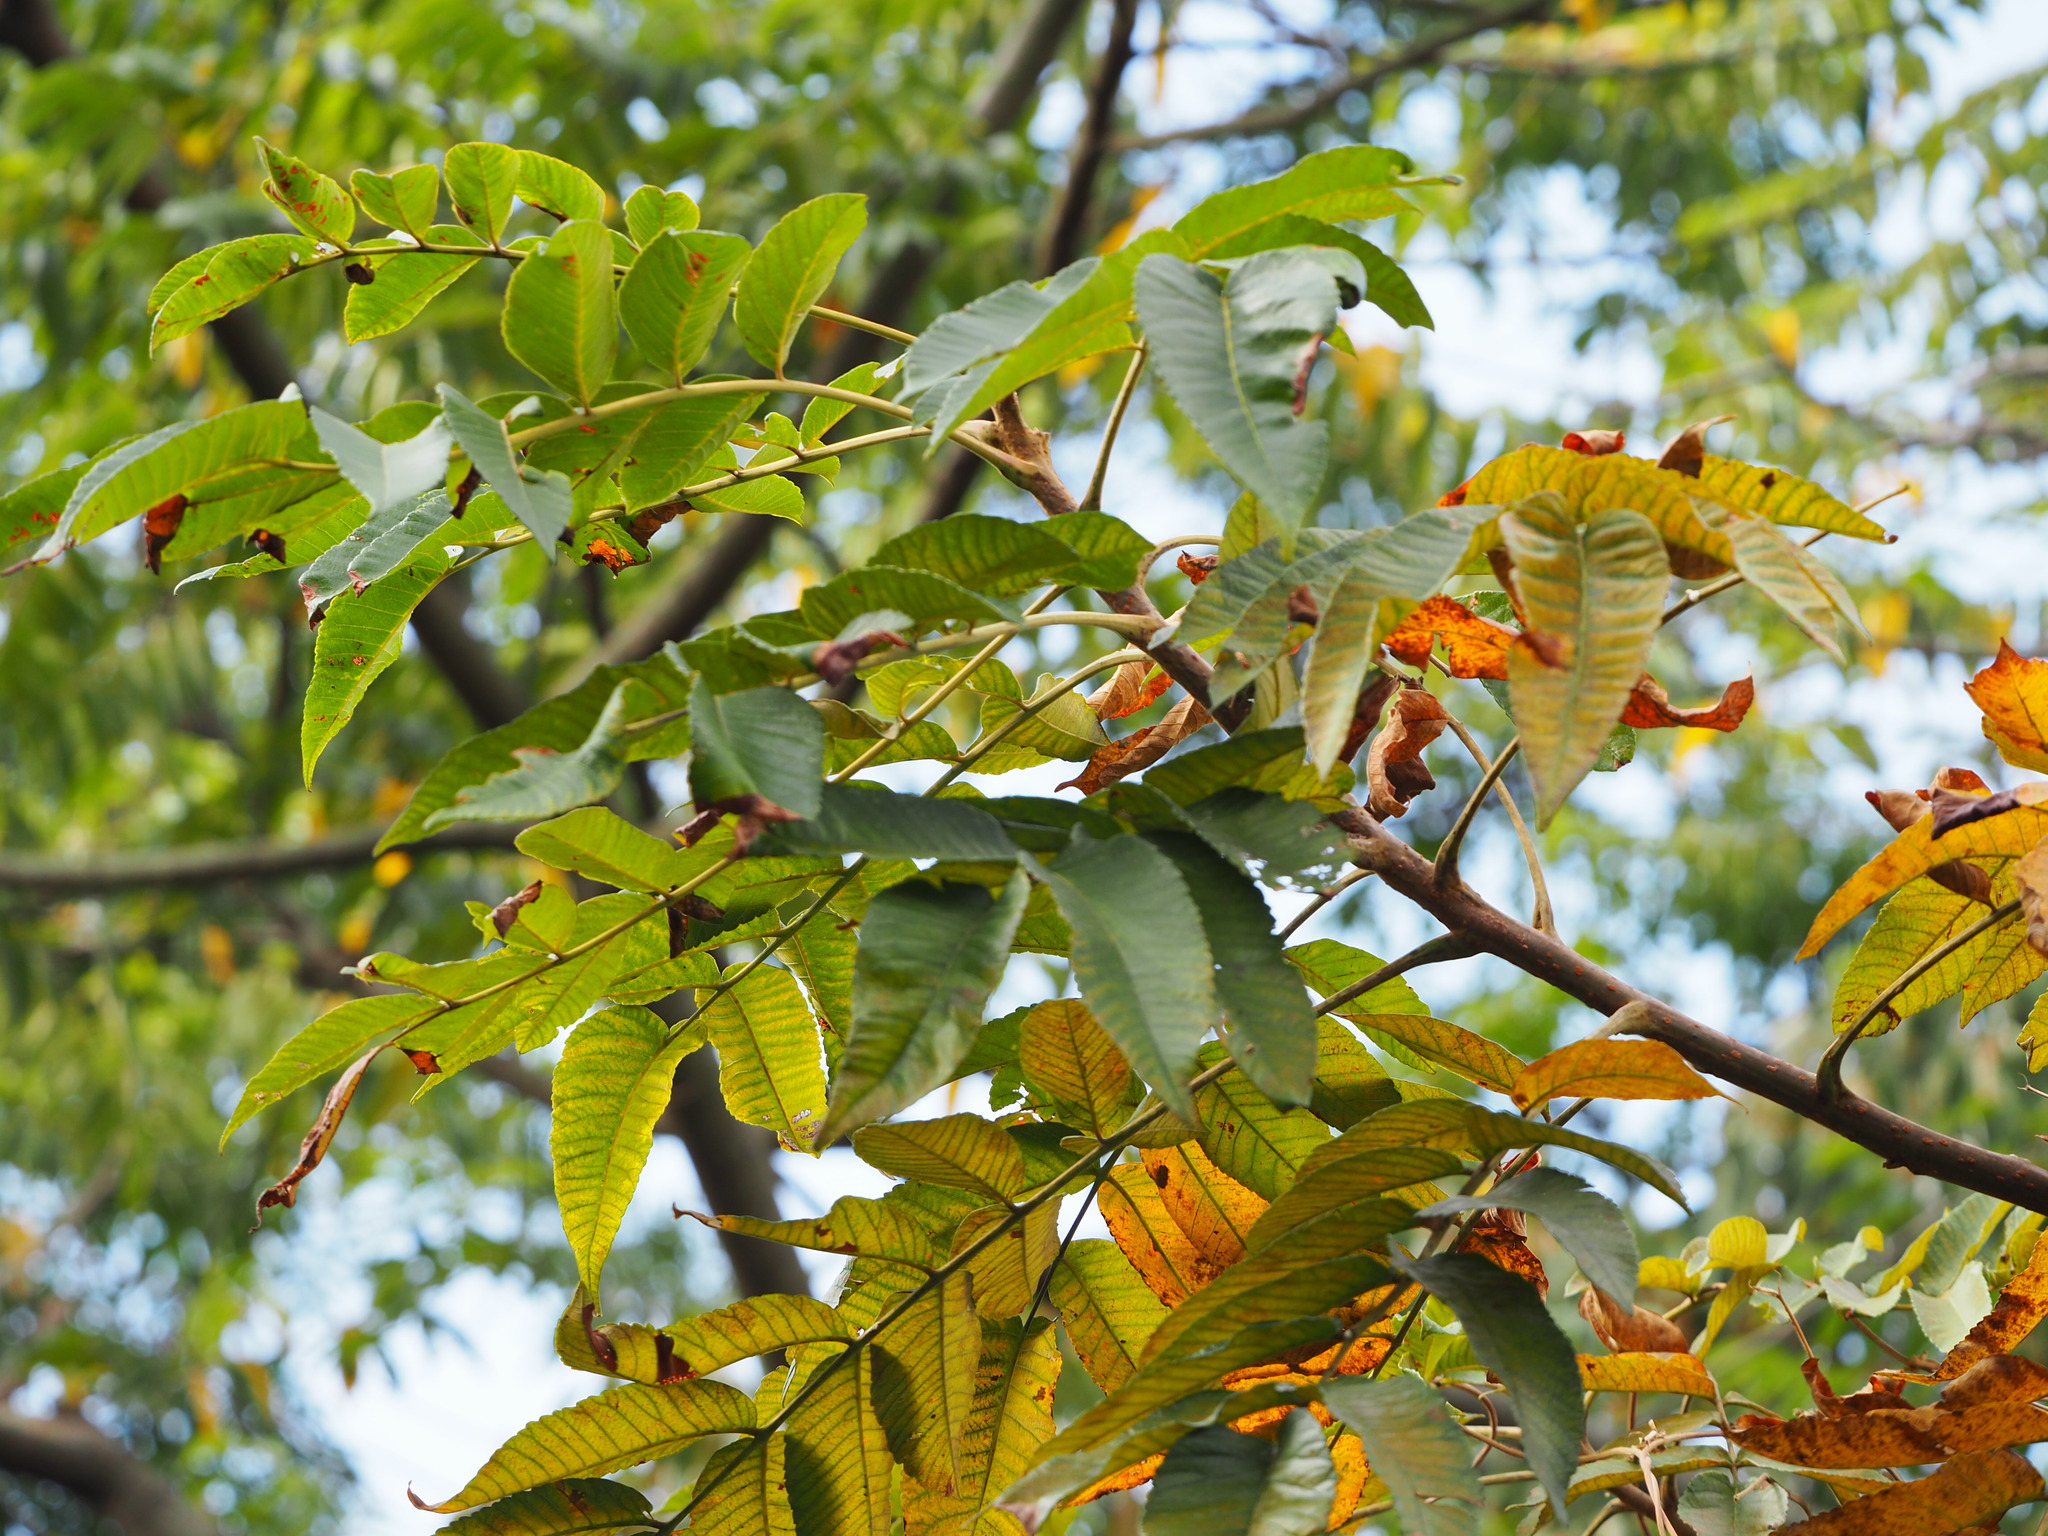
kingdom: Plantae
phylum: Tracheophyta
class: Magnoliopsida
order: Sapindales
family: Anacardiaceae
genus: Rhus
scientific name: Rhus chinensis
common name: Chinese gall
